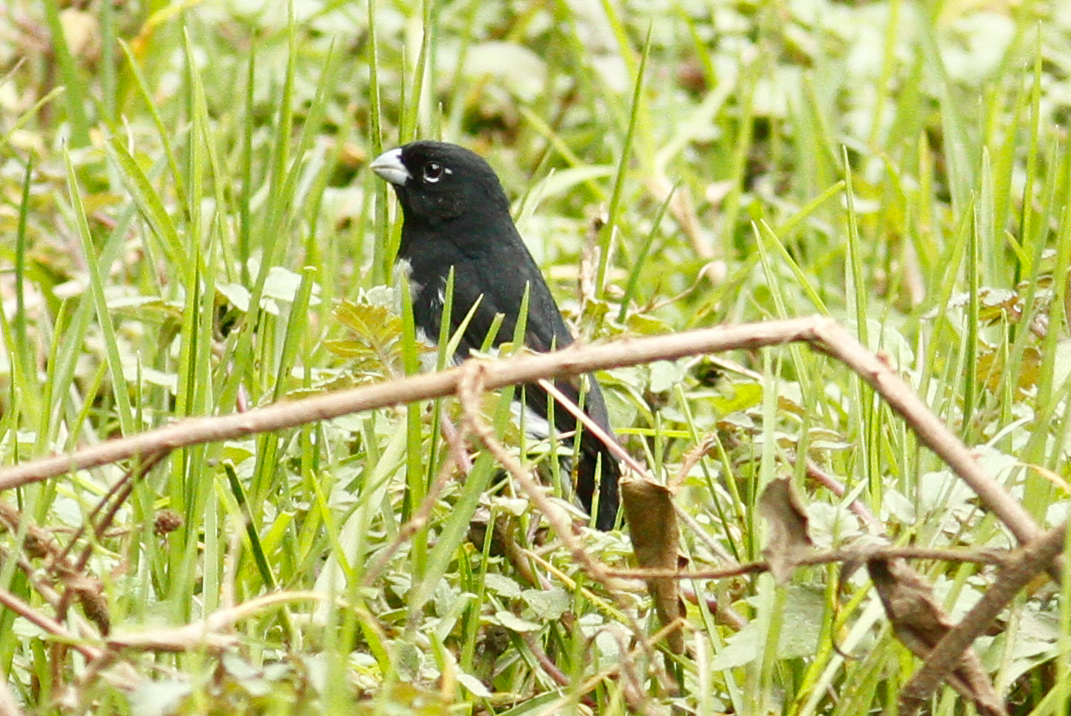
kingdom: Animalia
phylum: Chordata
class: Aves
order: Passeriformes
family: Thraupidae
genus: Sporophila
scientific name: Sporophila luctuosa
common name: Black-and-white seedeater
